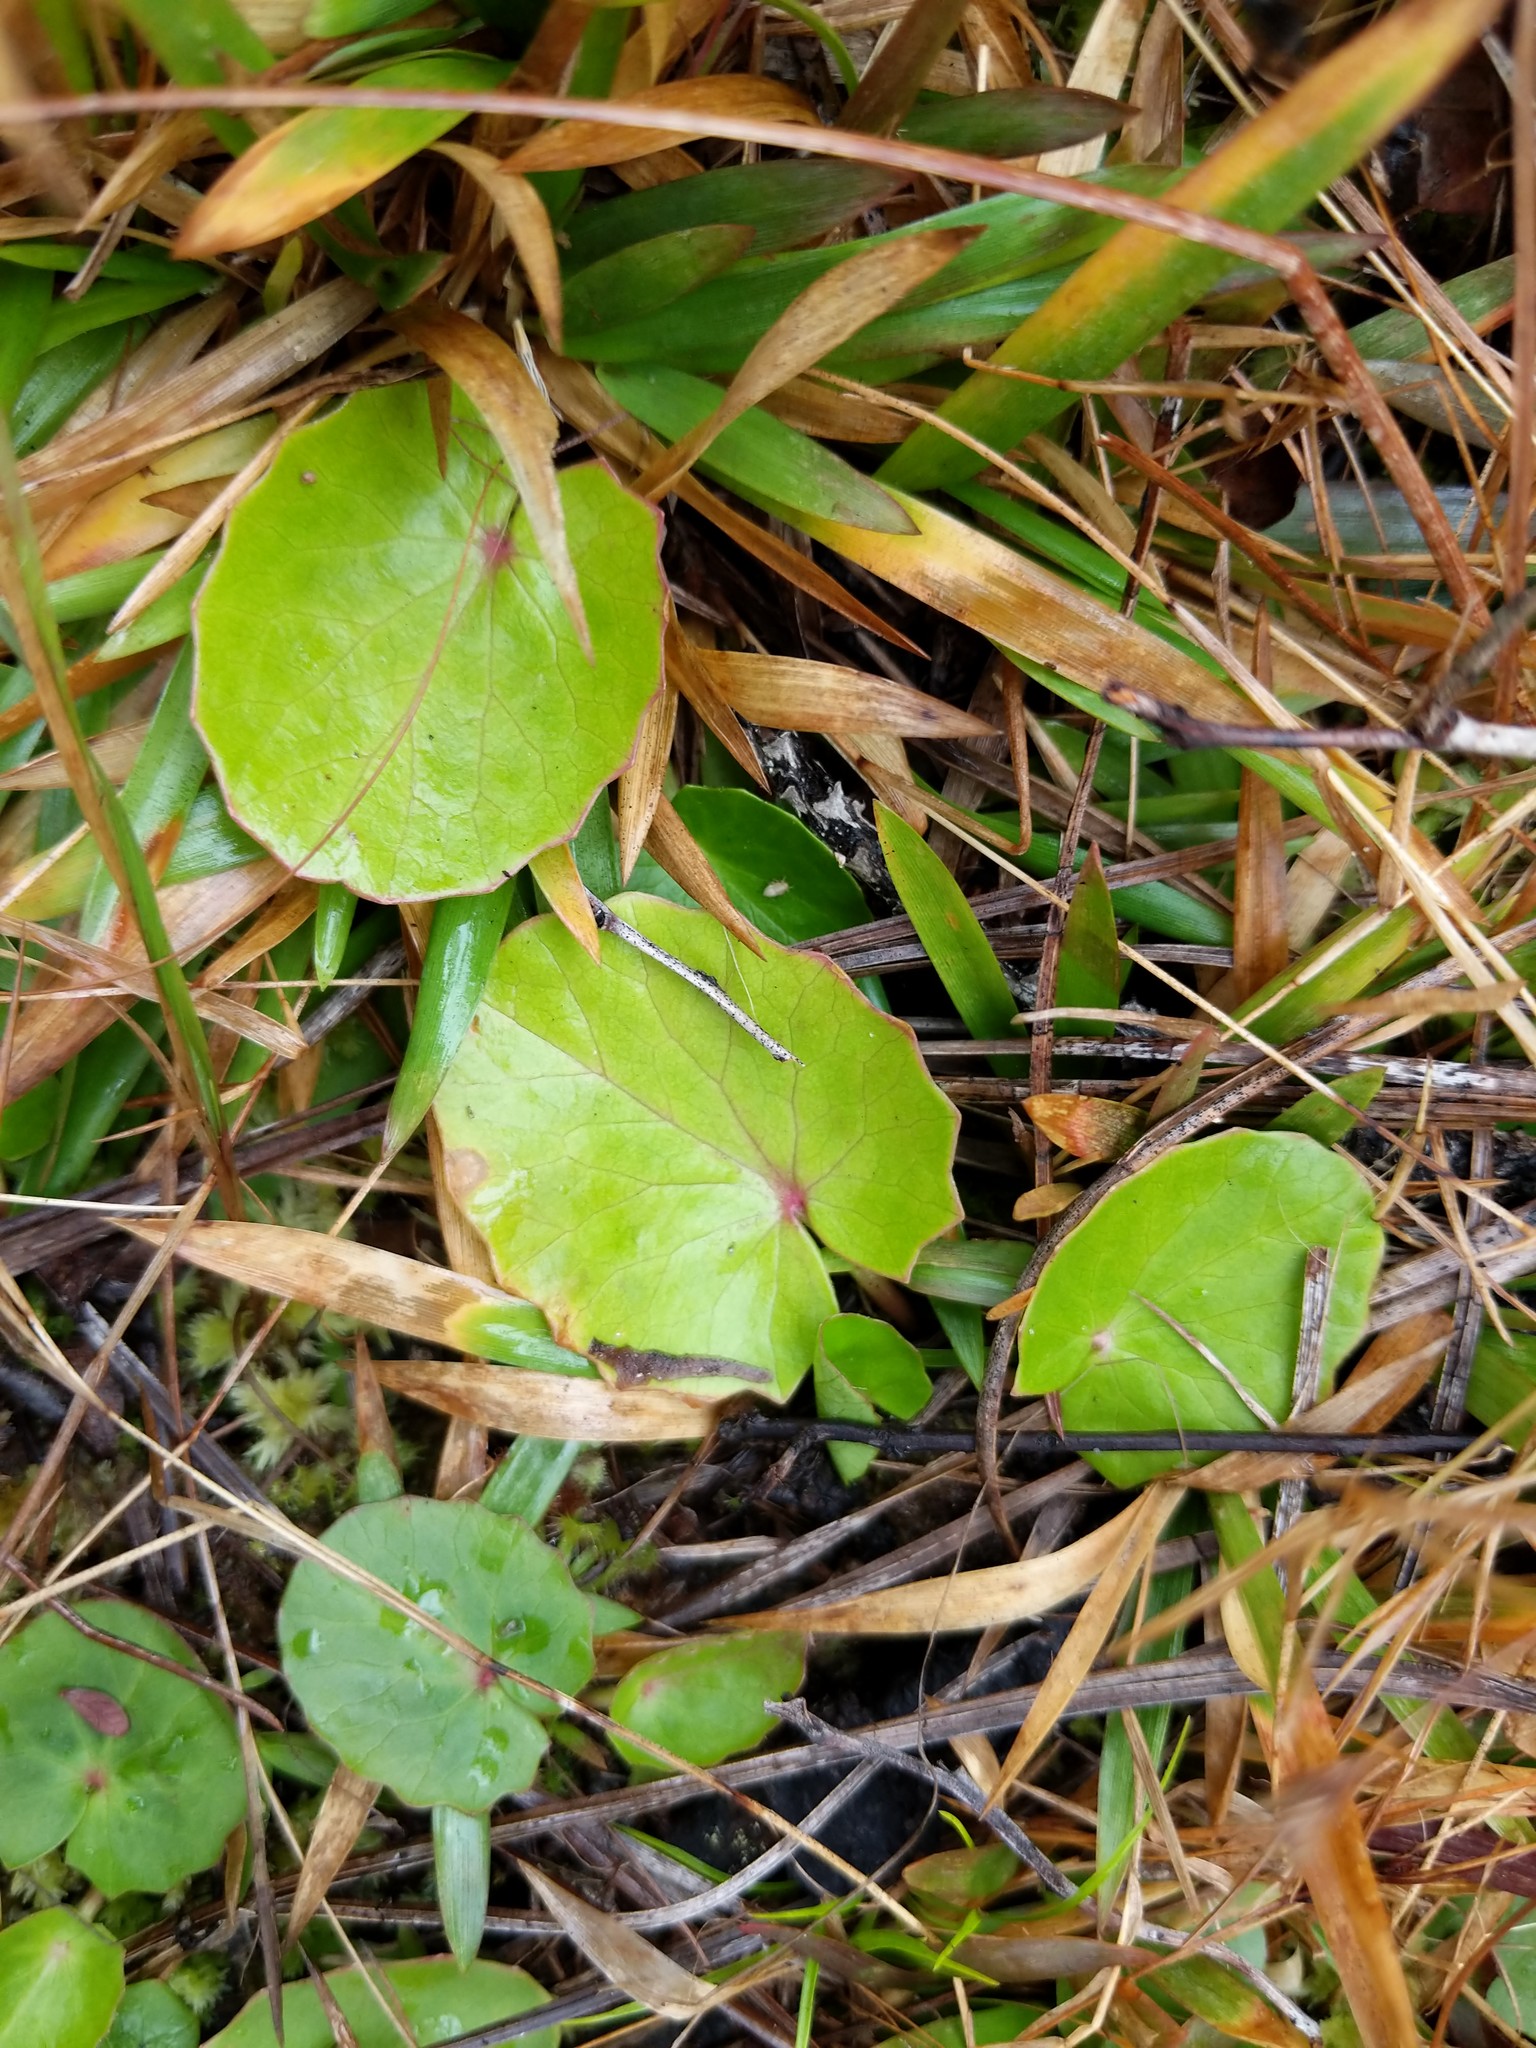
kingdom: Plantae
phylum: Tracheophyta
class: Magnoliopsida
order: Apiales
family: Apiaceae
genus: Centella
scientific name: Centella asiatica
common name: Spadeleaf
